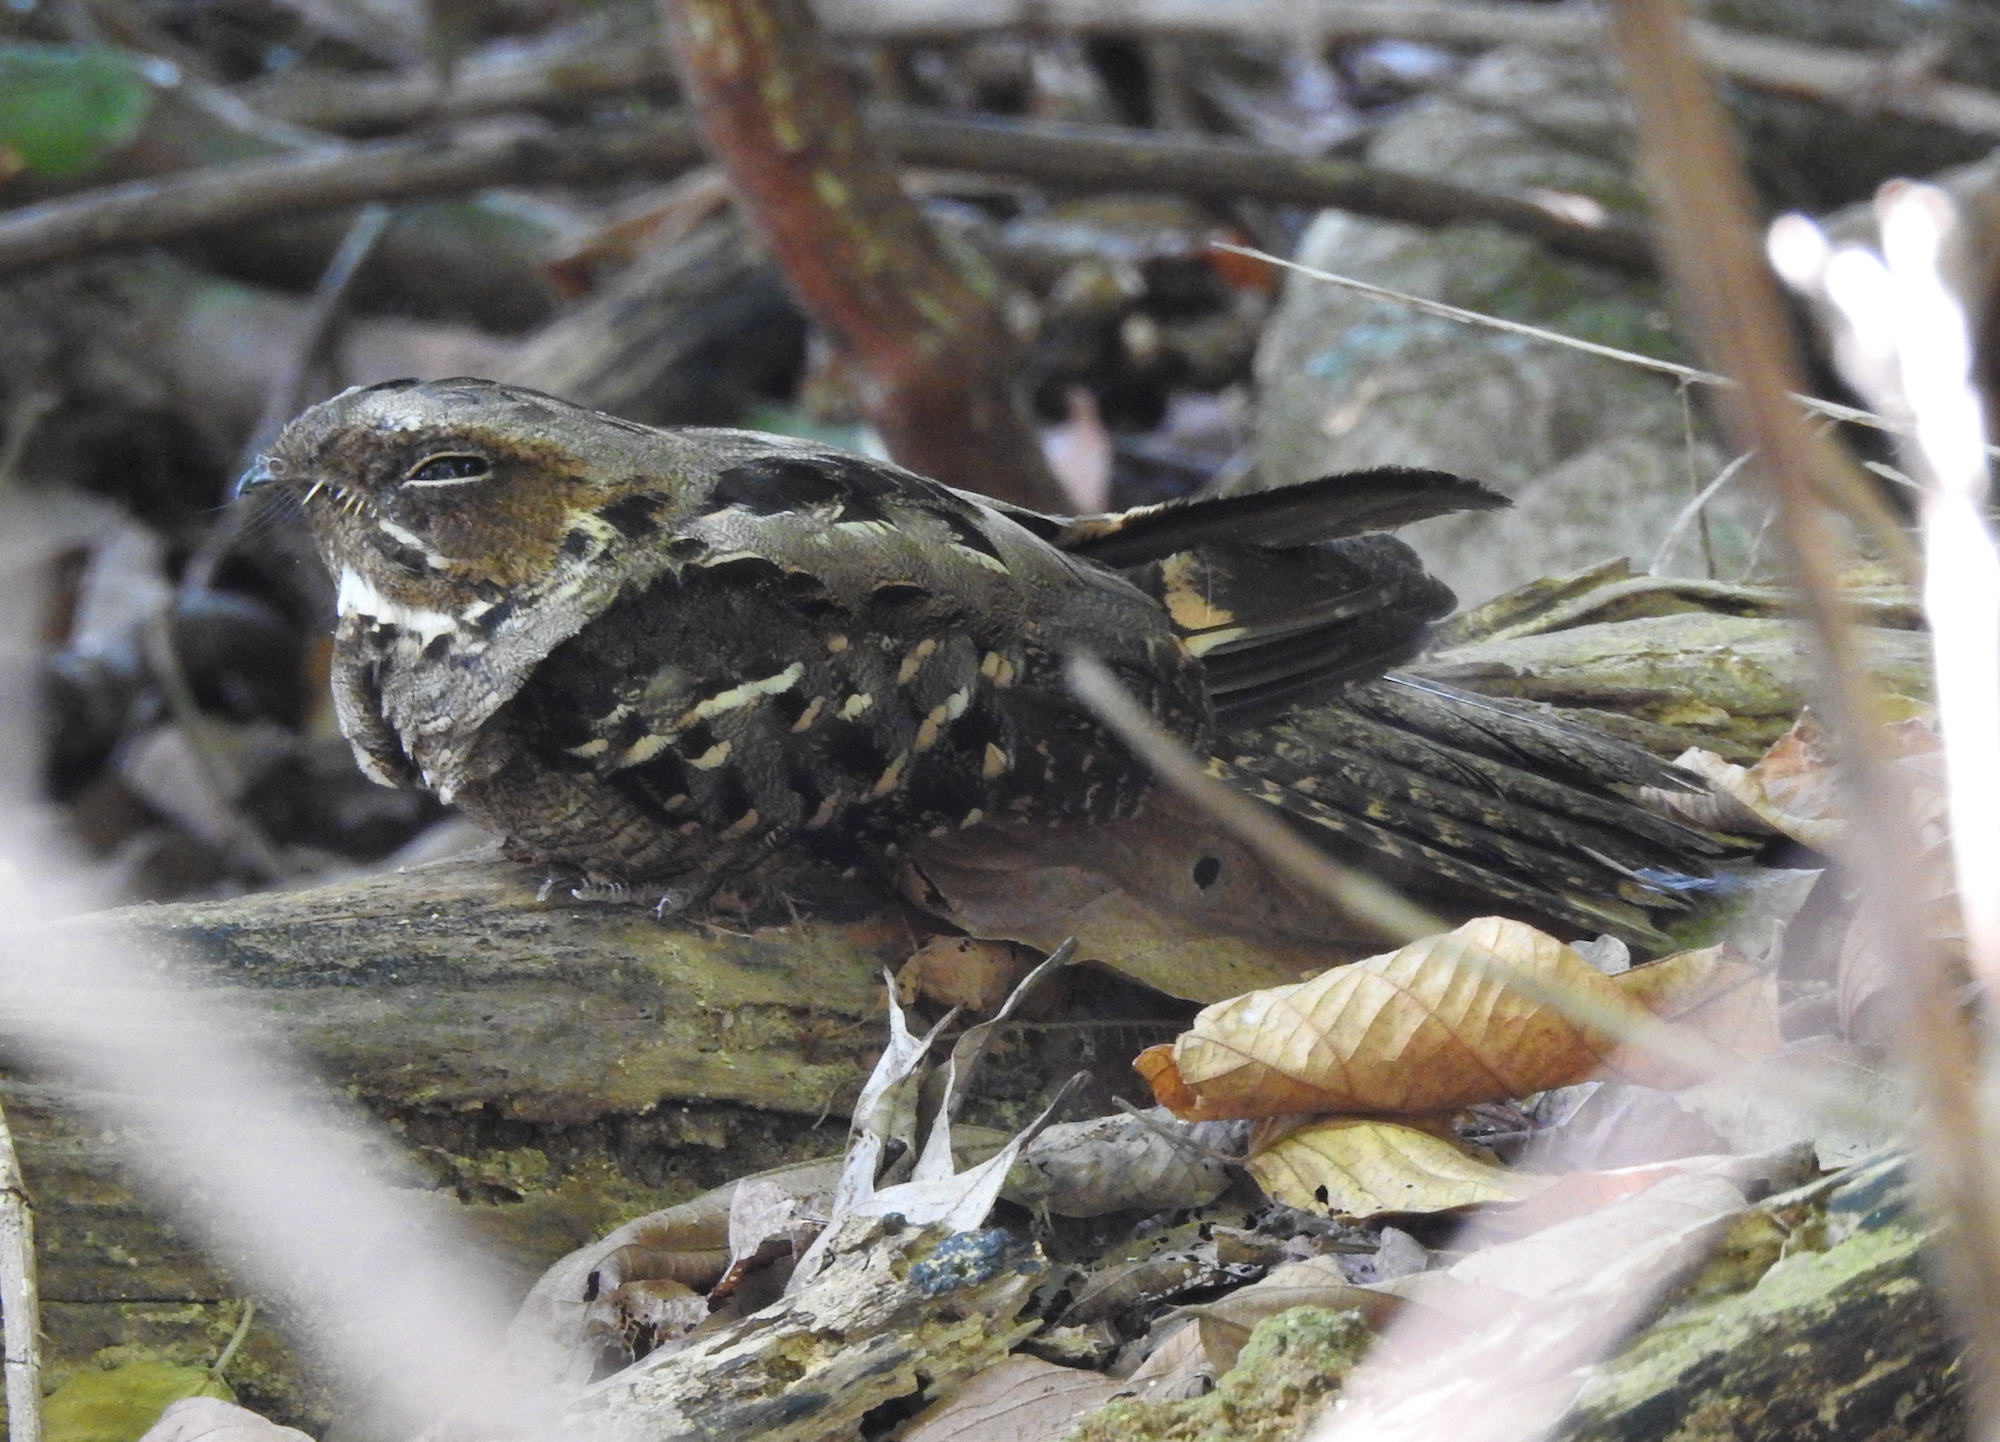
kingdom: Animalia
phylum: Chordata
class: Aves
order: Caprimulgiformes
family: Caprimulgidae
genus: Caprimulgus
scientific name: Caprimulgus macrurus
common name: Large-tailed nightjar
